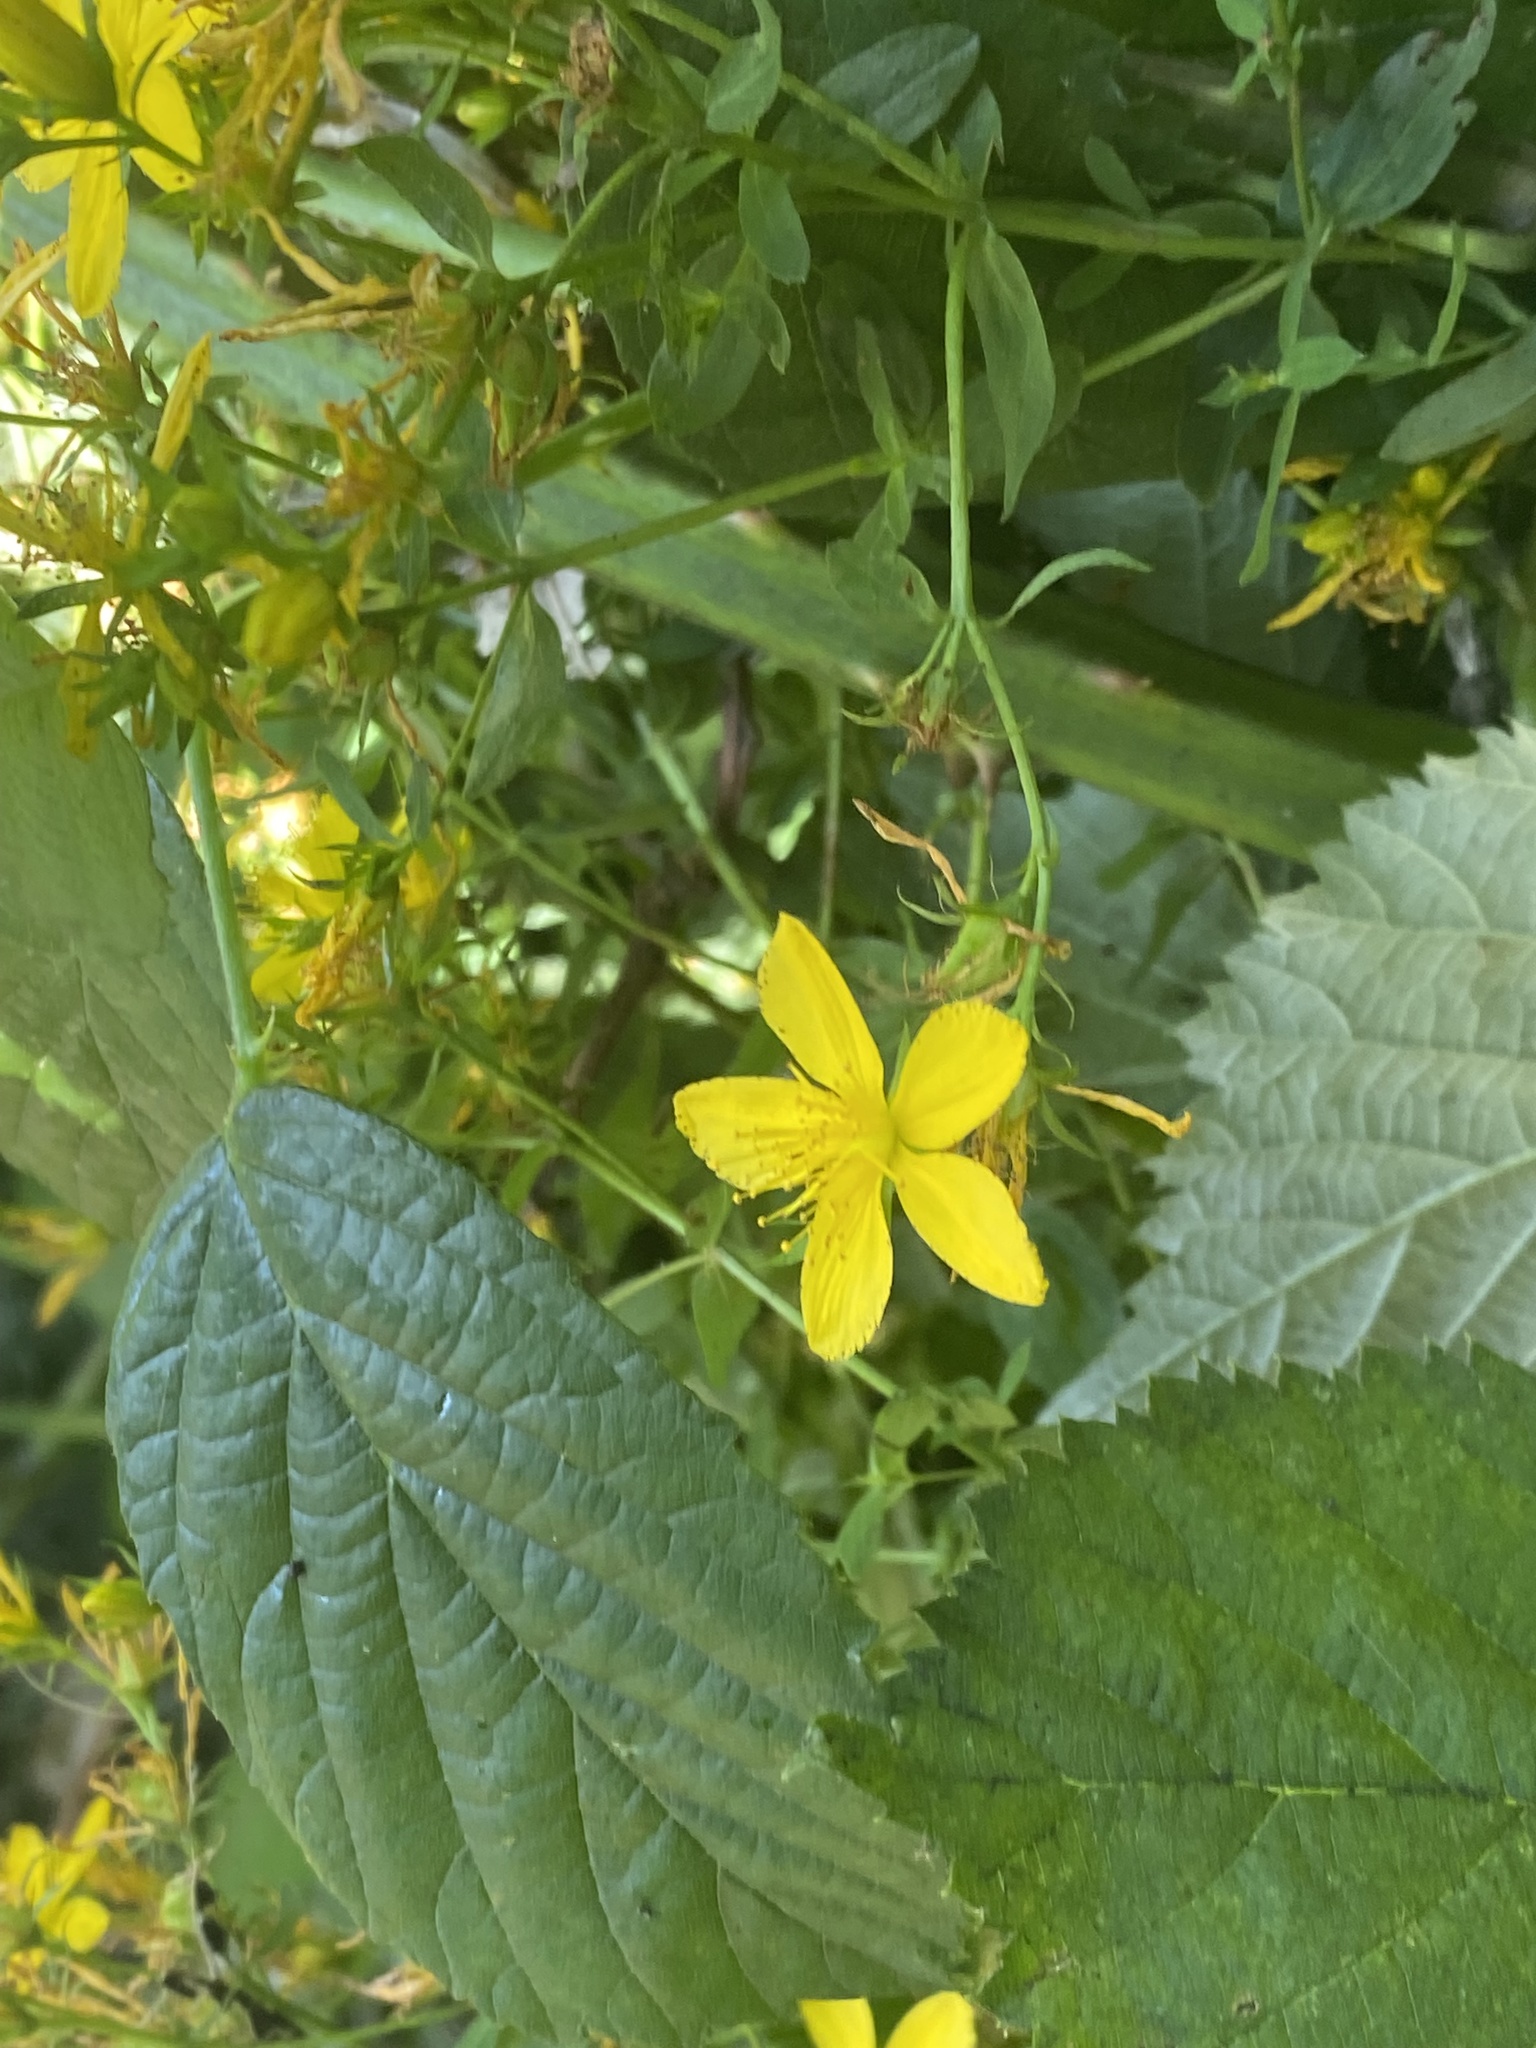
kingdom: Plantae
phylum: Tracheophyta
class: Magnoliopsida
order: Malpighiales
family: Hypericaceae
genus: Hypericum
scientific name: Hypericum perforatum
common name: Common st. johnswort
